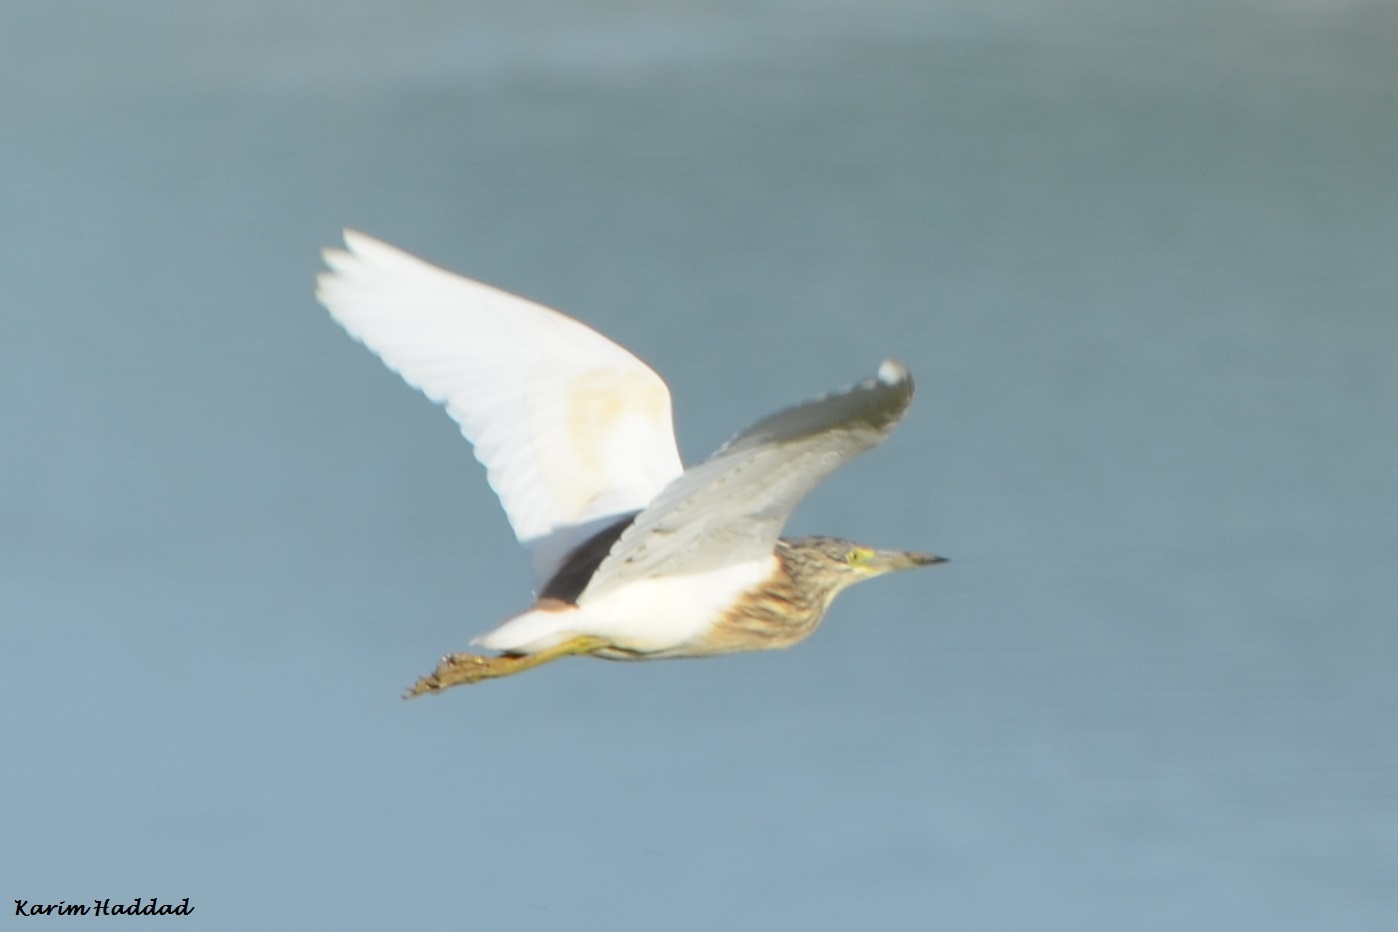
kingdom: Animalia
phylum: Chordata
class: Aves
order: Pelecaniformes
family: Ardeidae
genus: Ardeola
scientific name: Ardeola ralloides
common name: Squacco heron
